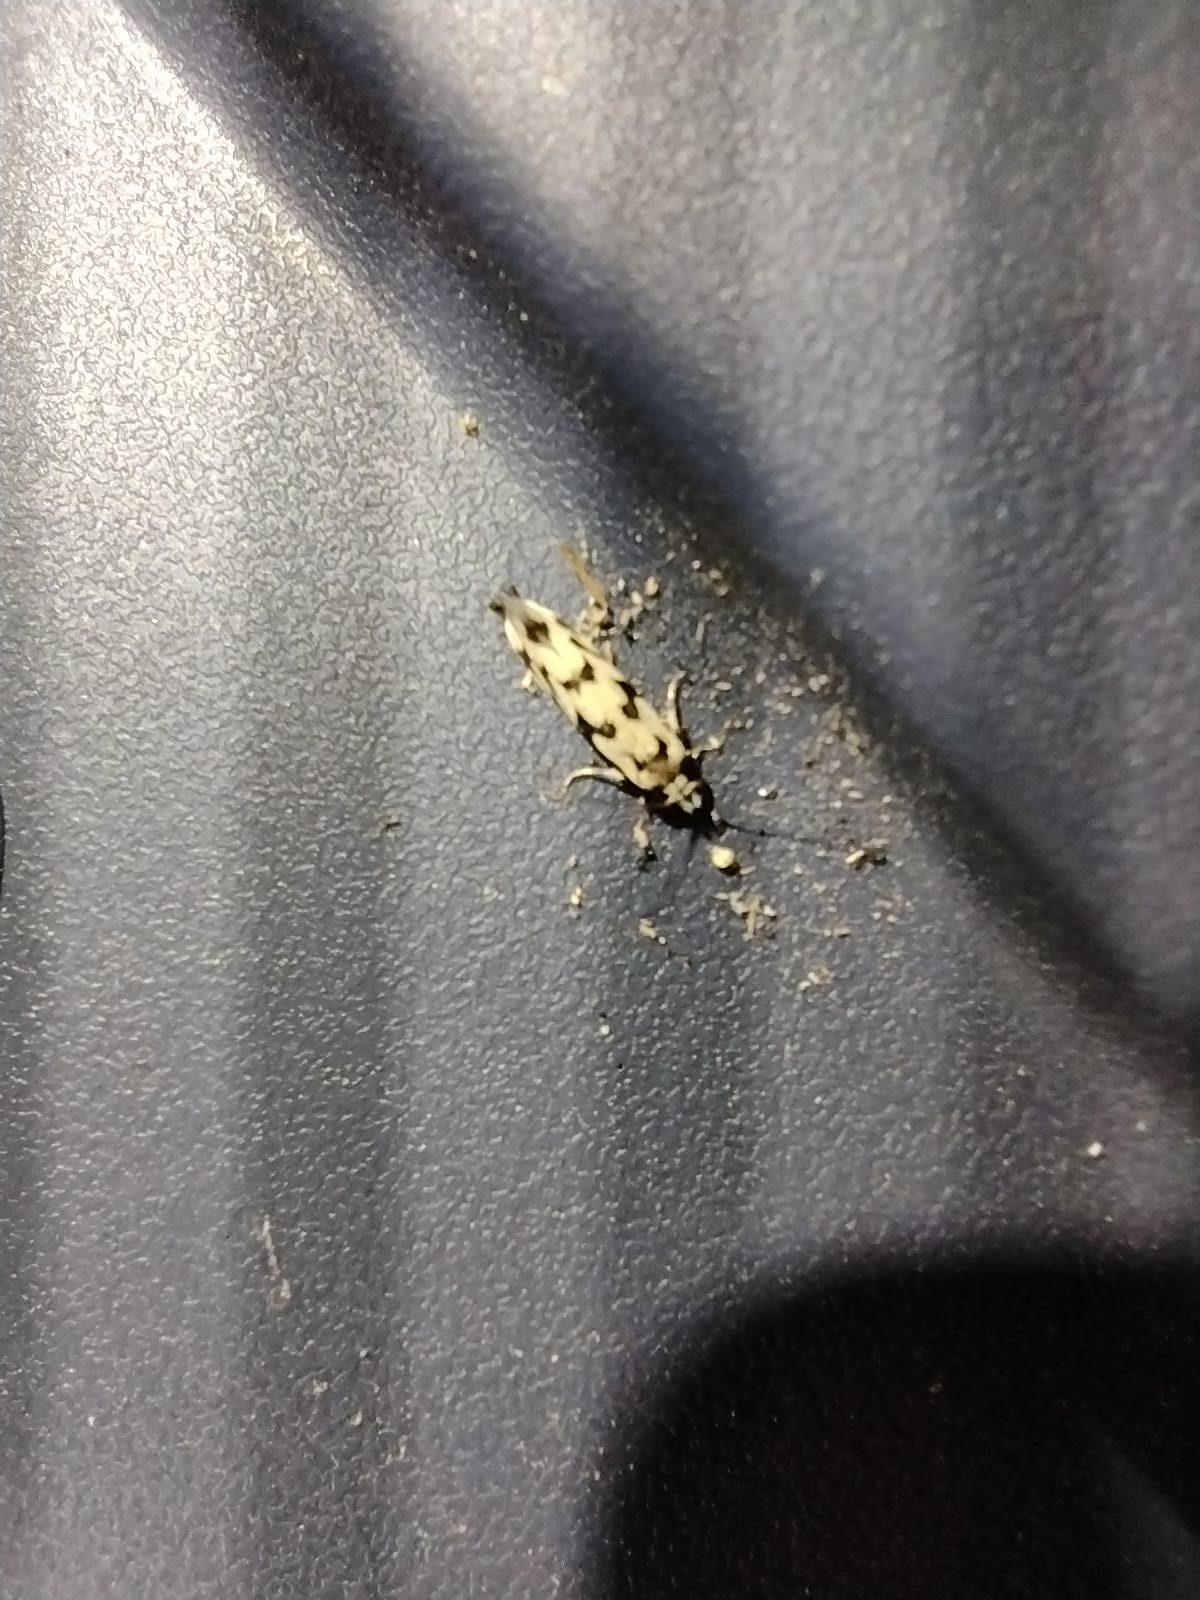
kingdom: Animalia
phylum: Arthropoda
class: Insecta
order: Lepidoptera
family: Tineidae
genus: Erechthias
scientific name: Erechthias simulans
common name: Fungus moth
